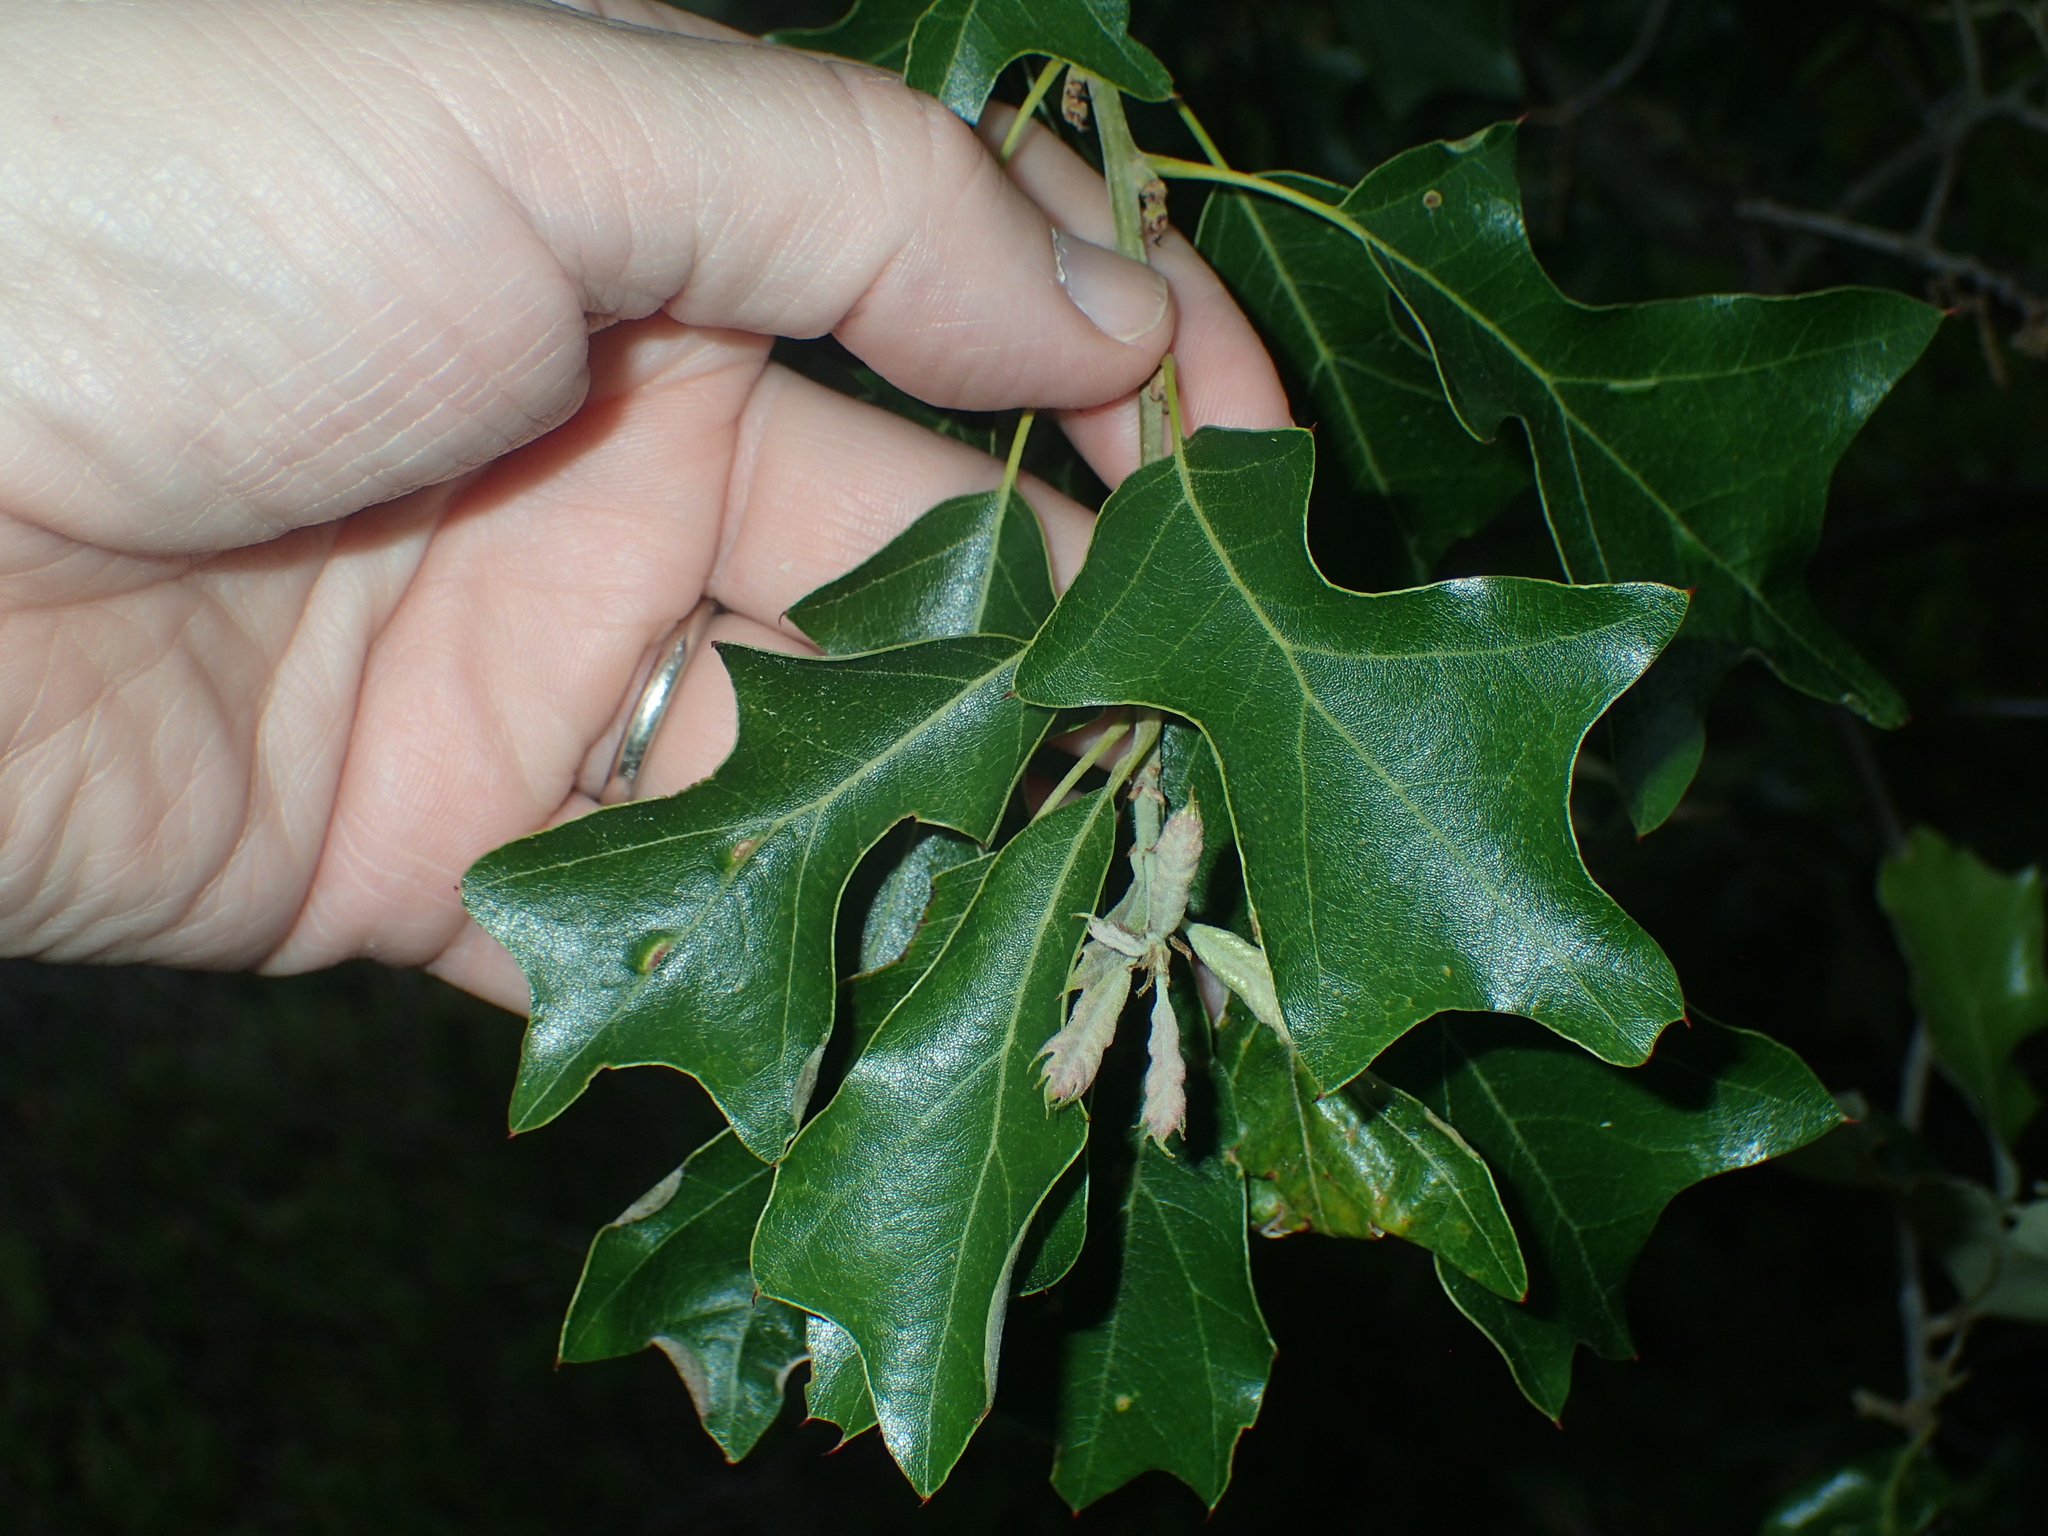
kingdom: Plantae
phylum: Tracheophyta
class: Magnoliopsida
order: Fagales
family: Fagaceae
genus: Quercus
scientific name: Quercus ilicifolia
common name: Bear oak
